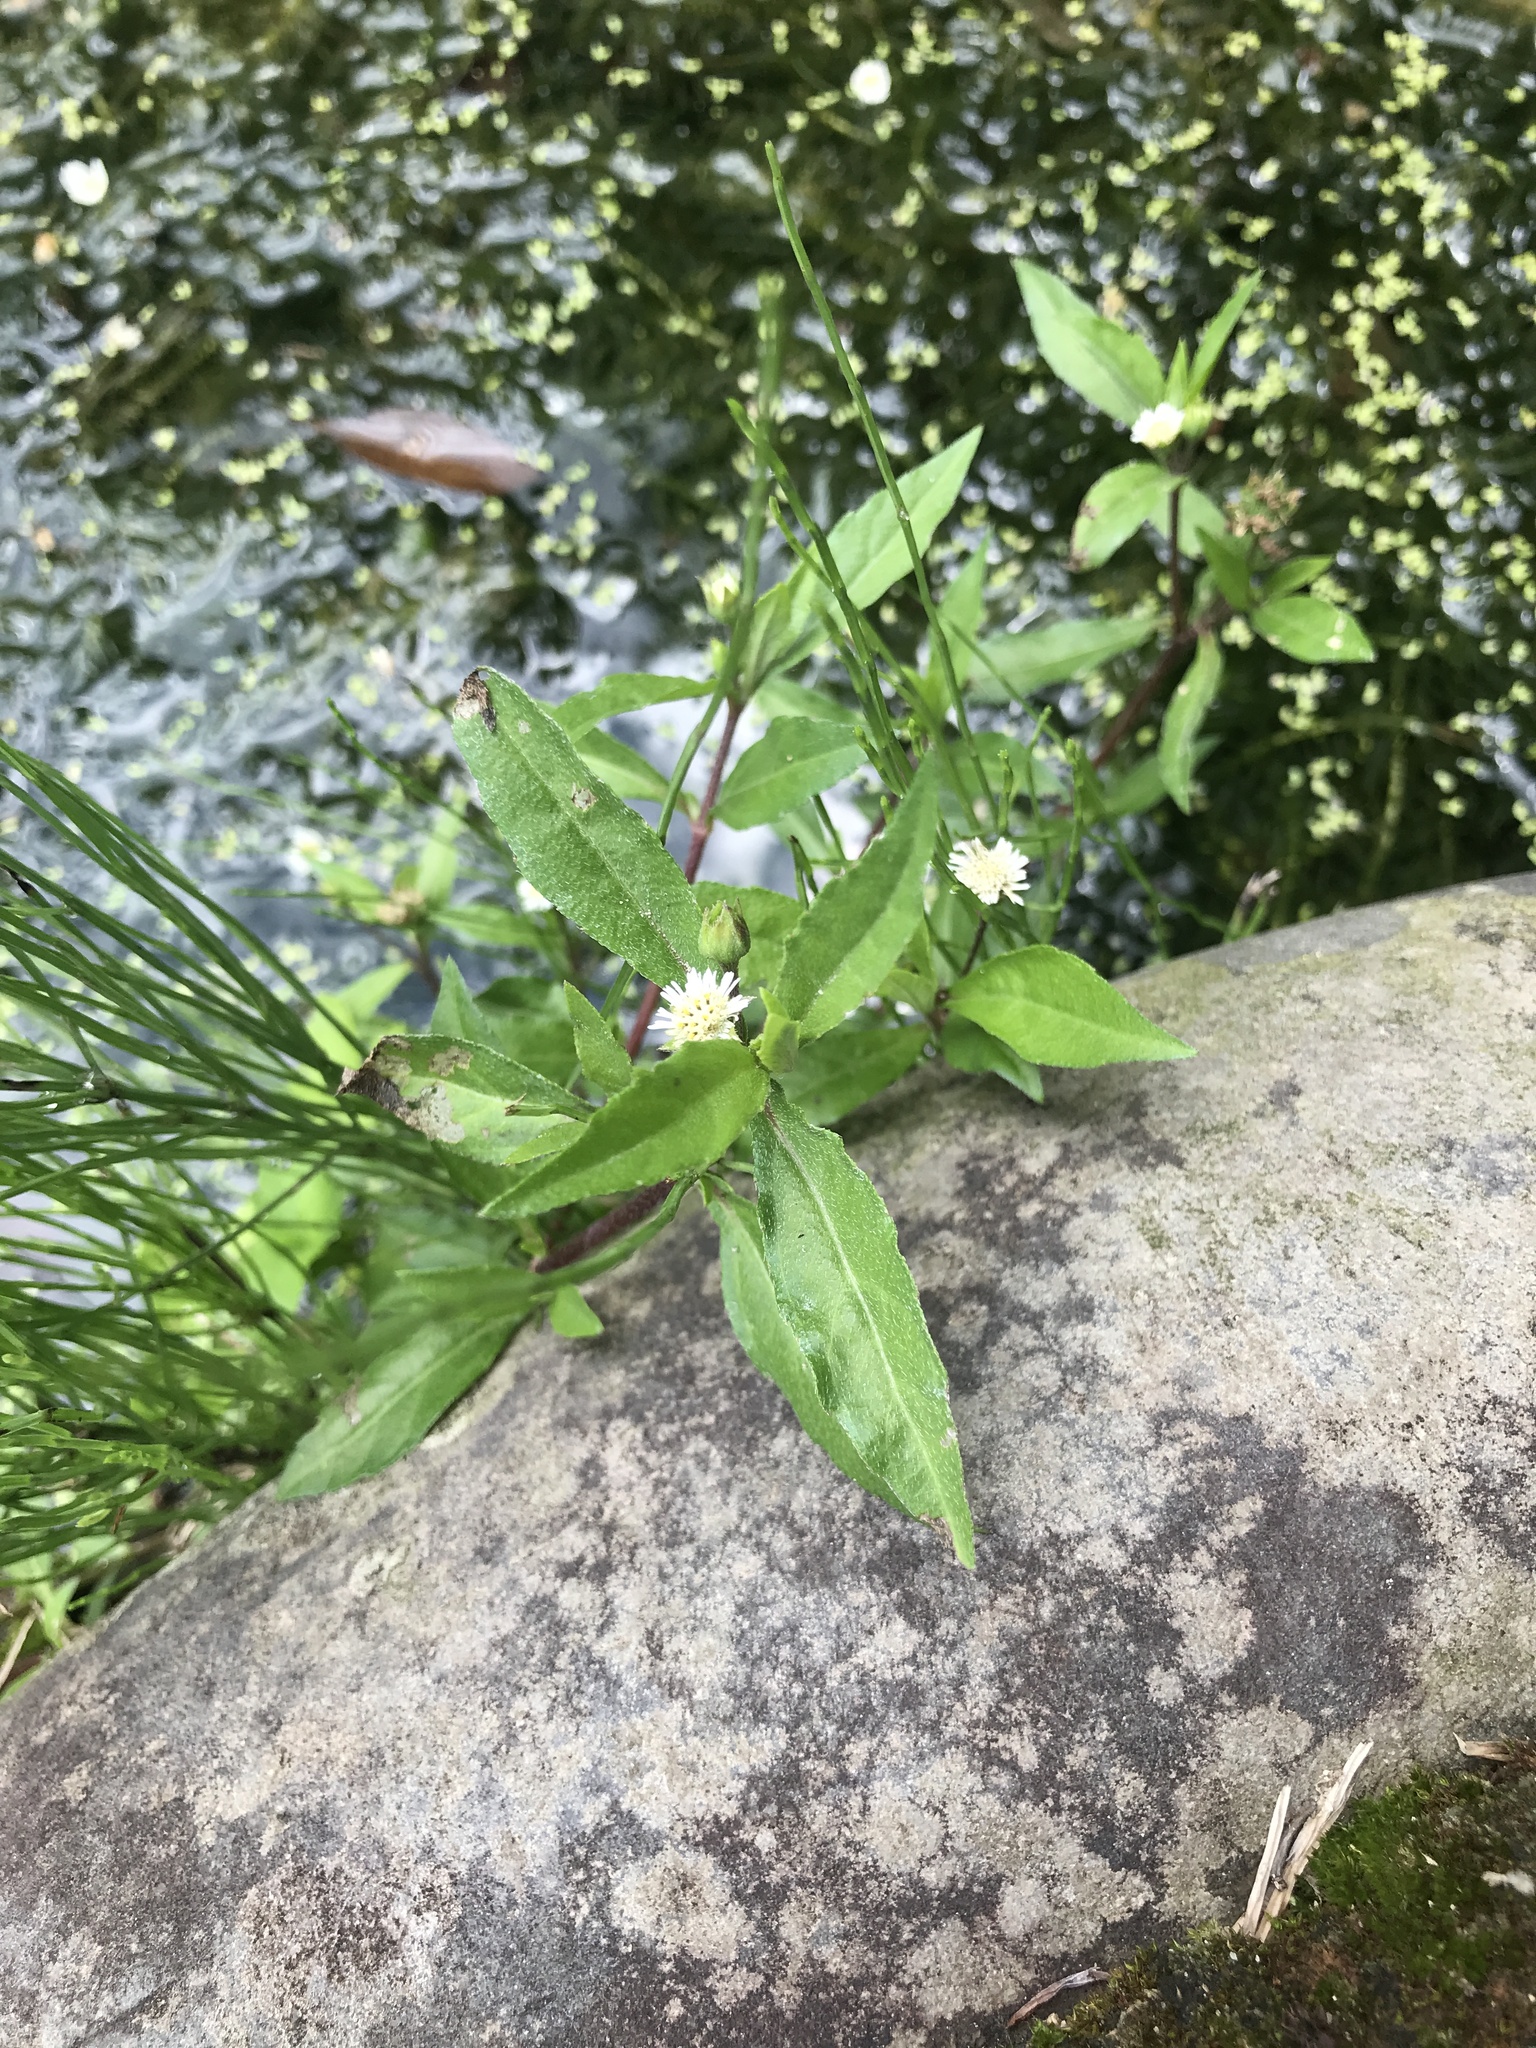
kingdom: Plantae
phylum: Tracheophyta
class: Magnoliopsida
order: Asterales
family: Asteraceae
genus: Eclipta
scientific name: Eclipta prostrata
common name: False daisy
